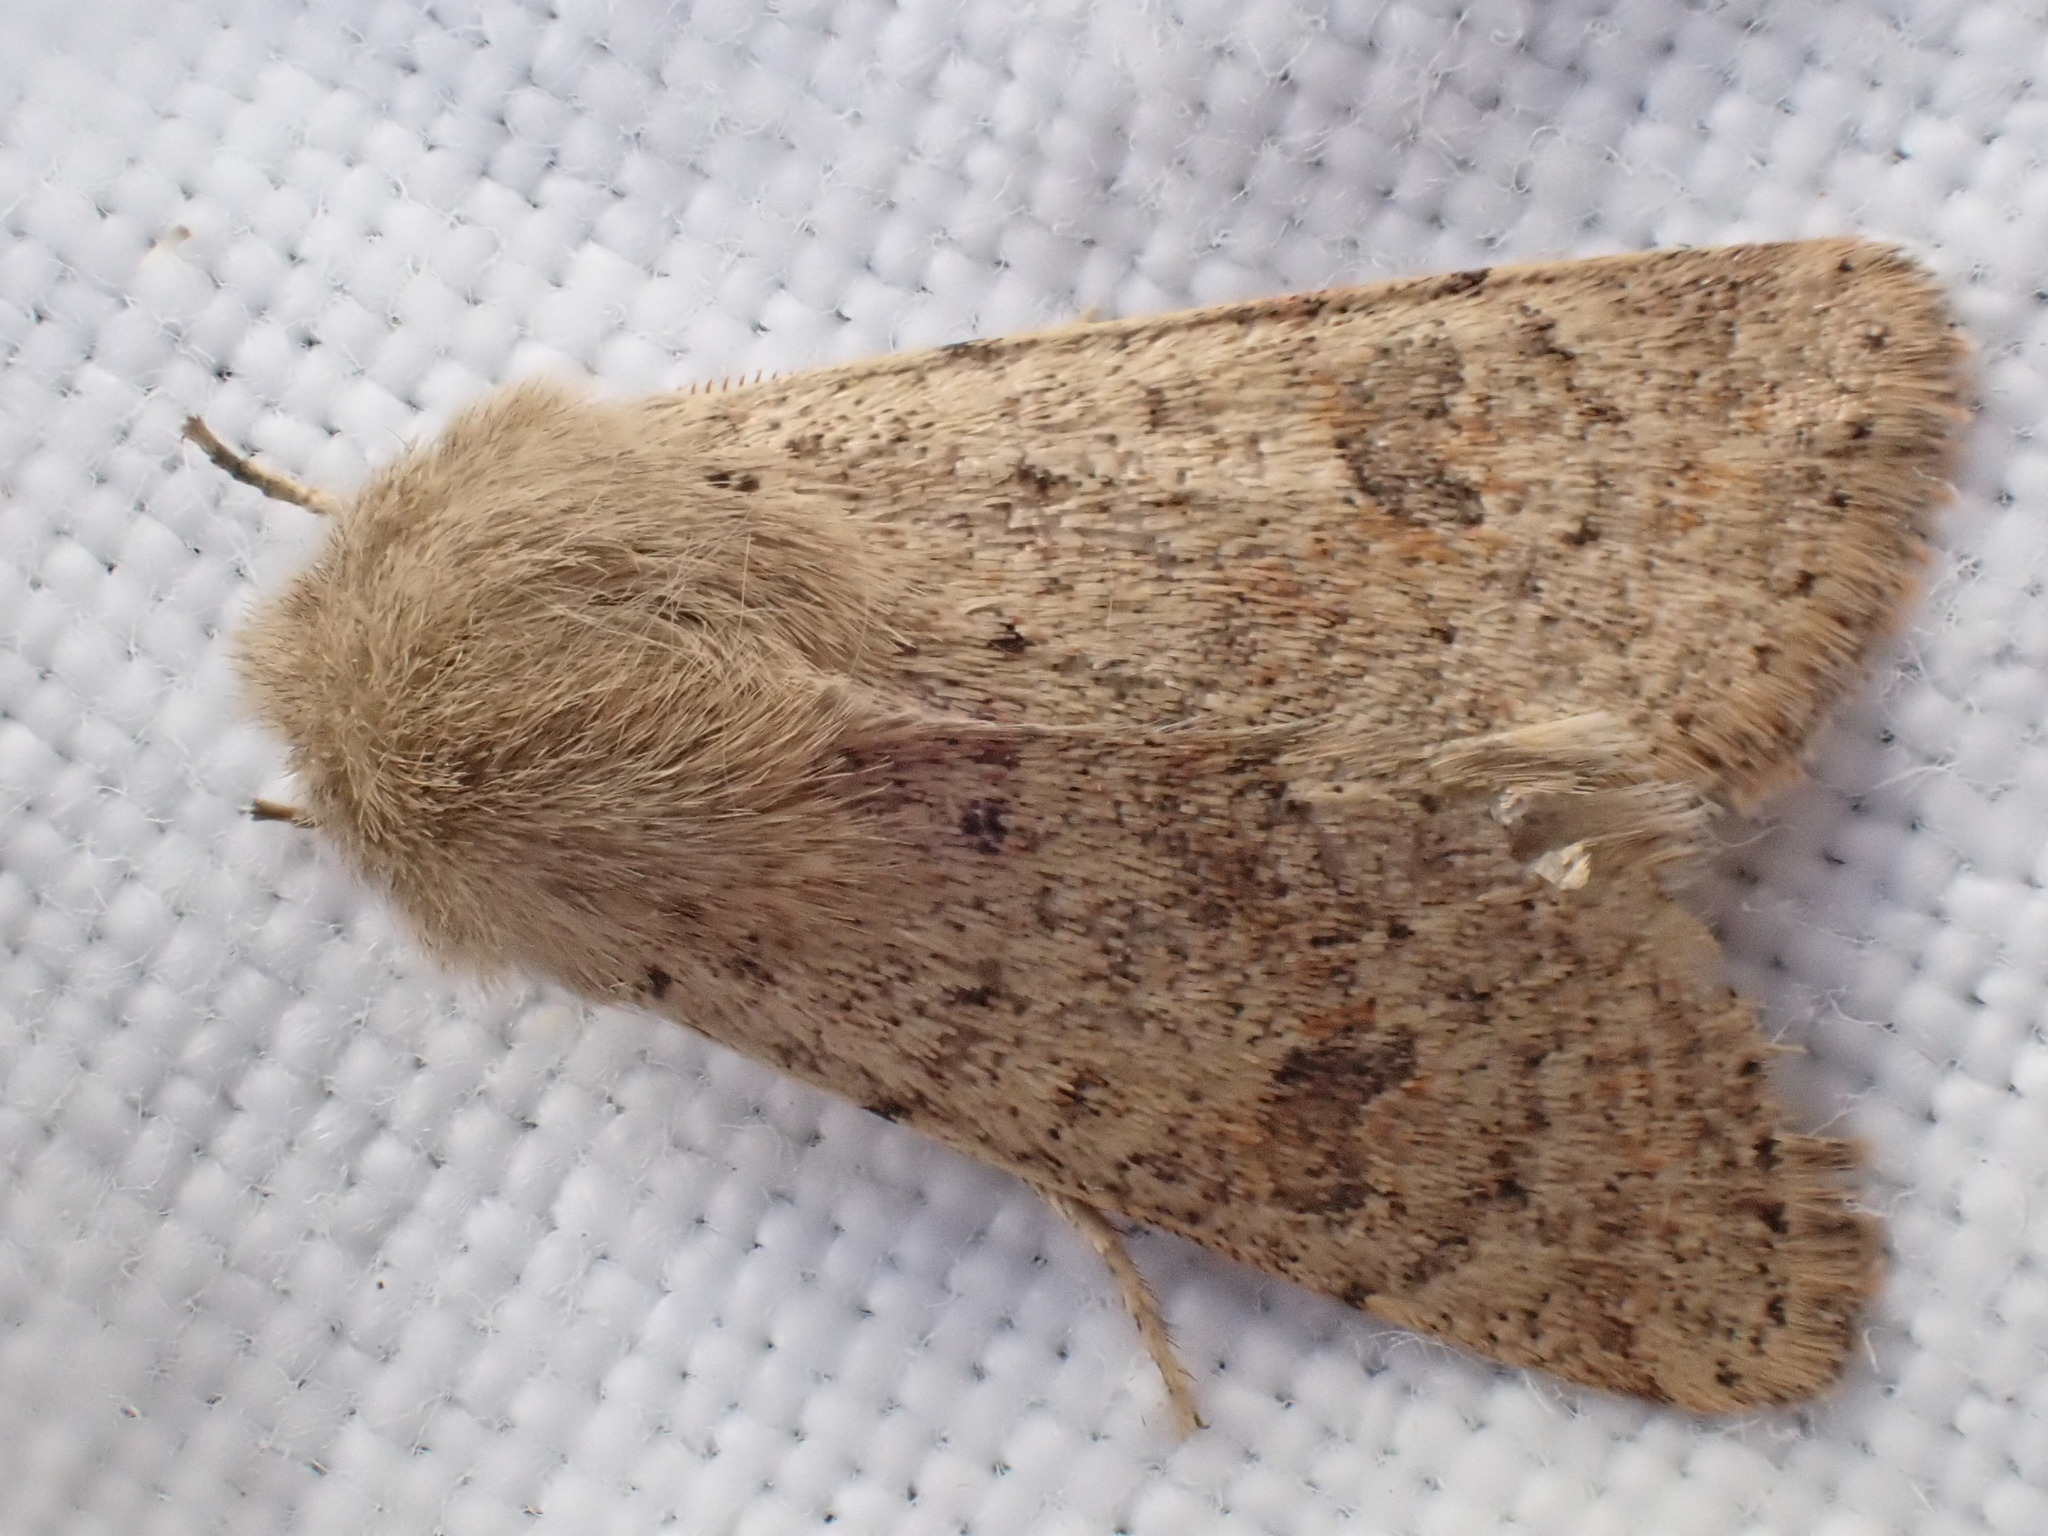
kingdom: Animalia
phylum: Arthropoda
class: Insecta
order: Lepidoptera
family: Noctuidae
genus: Orthosia
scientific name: Orthosia cruda
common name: Small quaker
